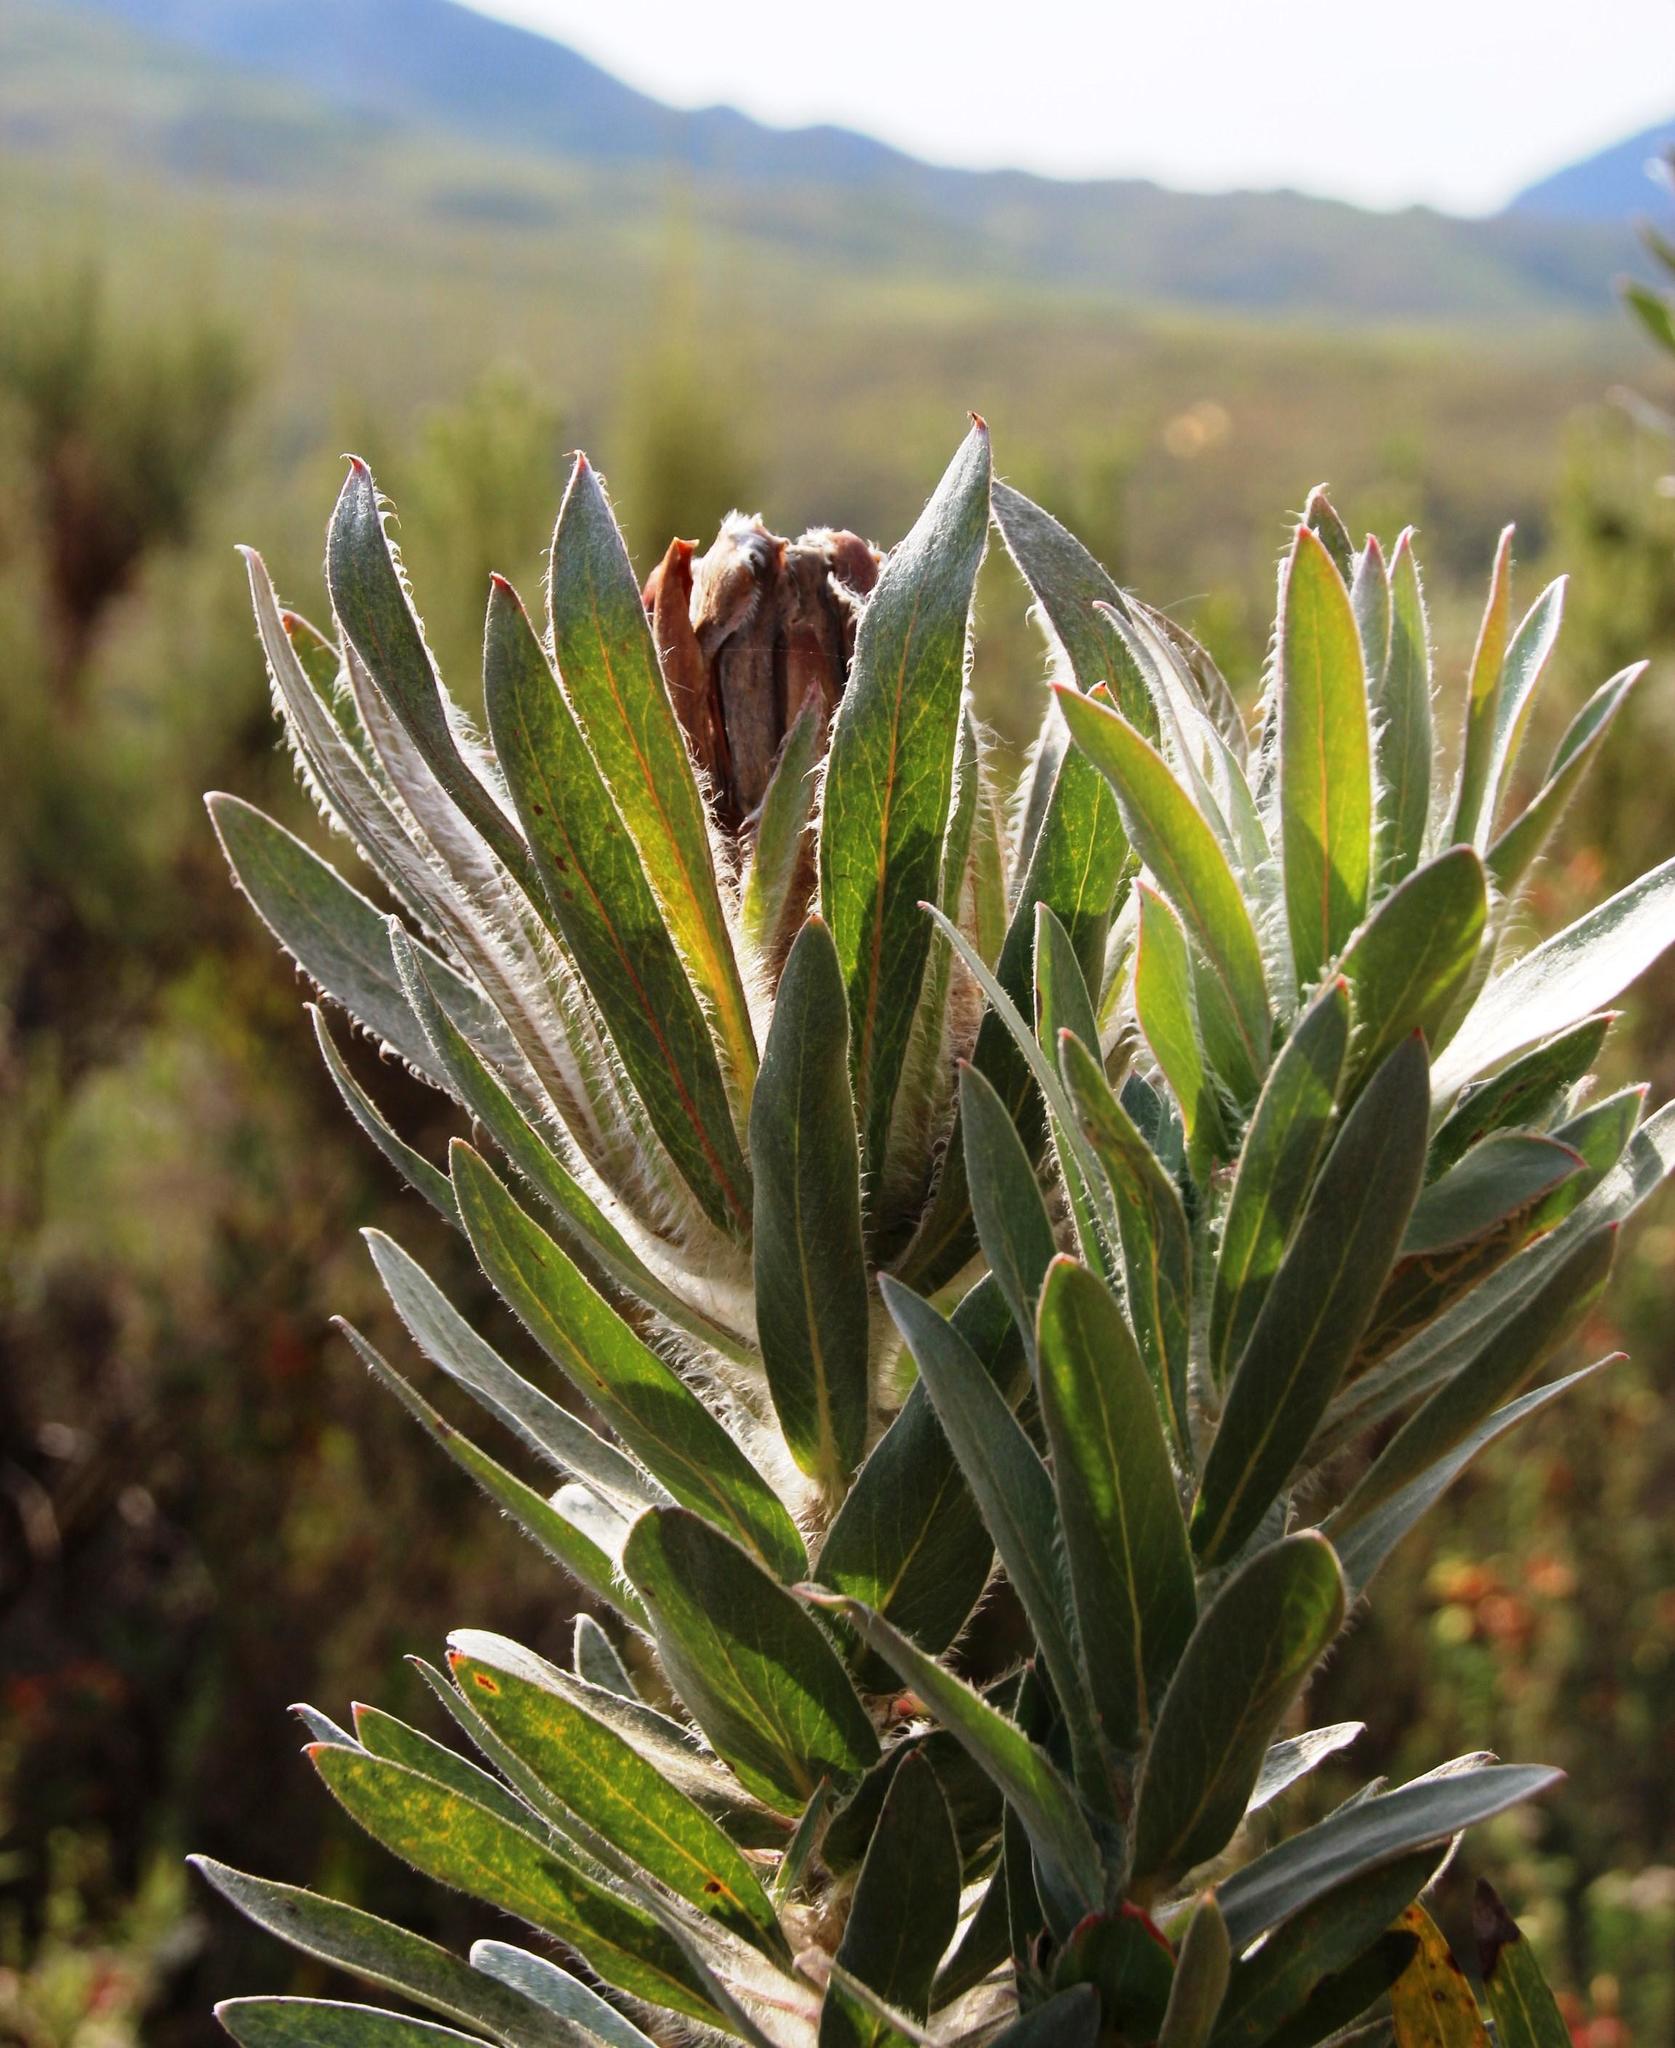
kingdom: Plantae
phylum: Tracheophyta
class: Magnoliopsida
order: Proteales
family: Proteaceae
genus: Protea
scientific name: Protea coronata
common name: Green sugarbush
